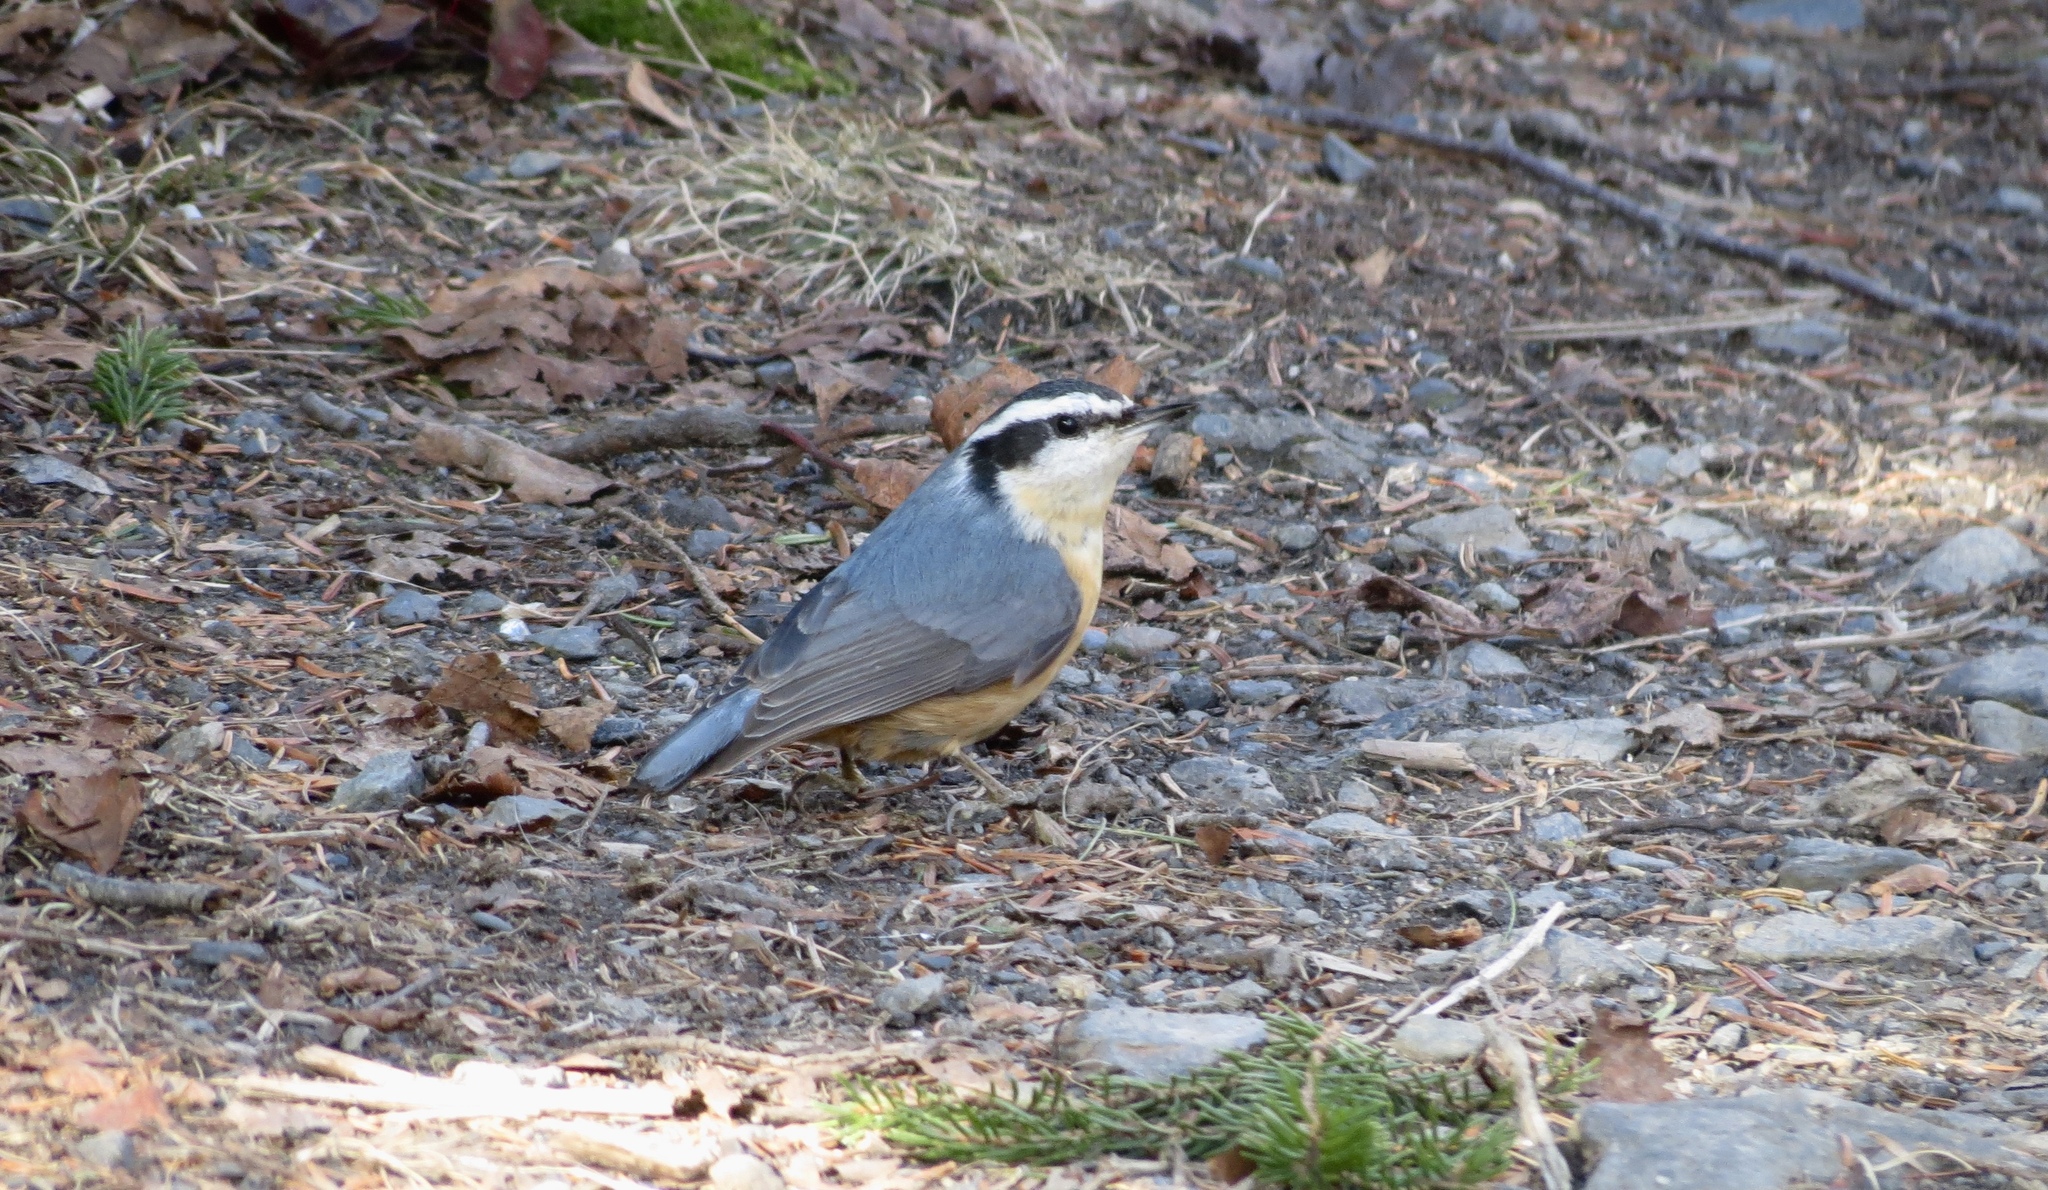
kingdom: Animalia
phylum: Chordata
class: Aves
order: Passeriformes
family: Sittidae
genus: Sitta
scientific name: Sitta canadensis
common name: Red-breasted nuthatch
